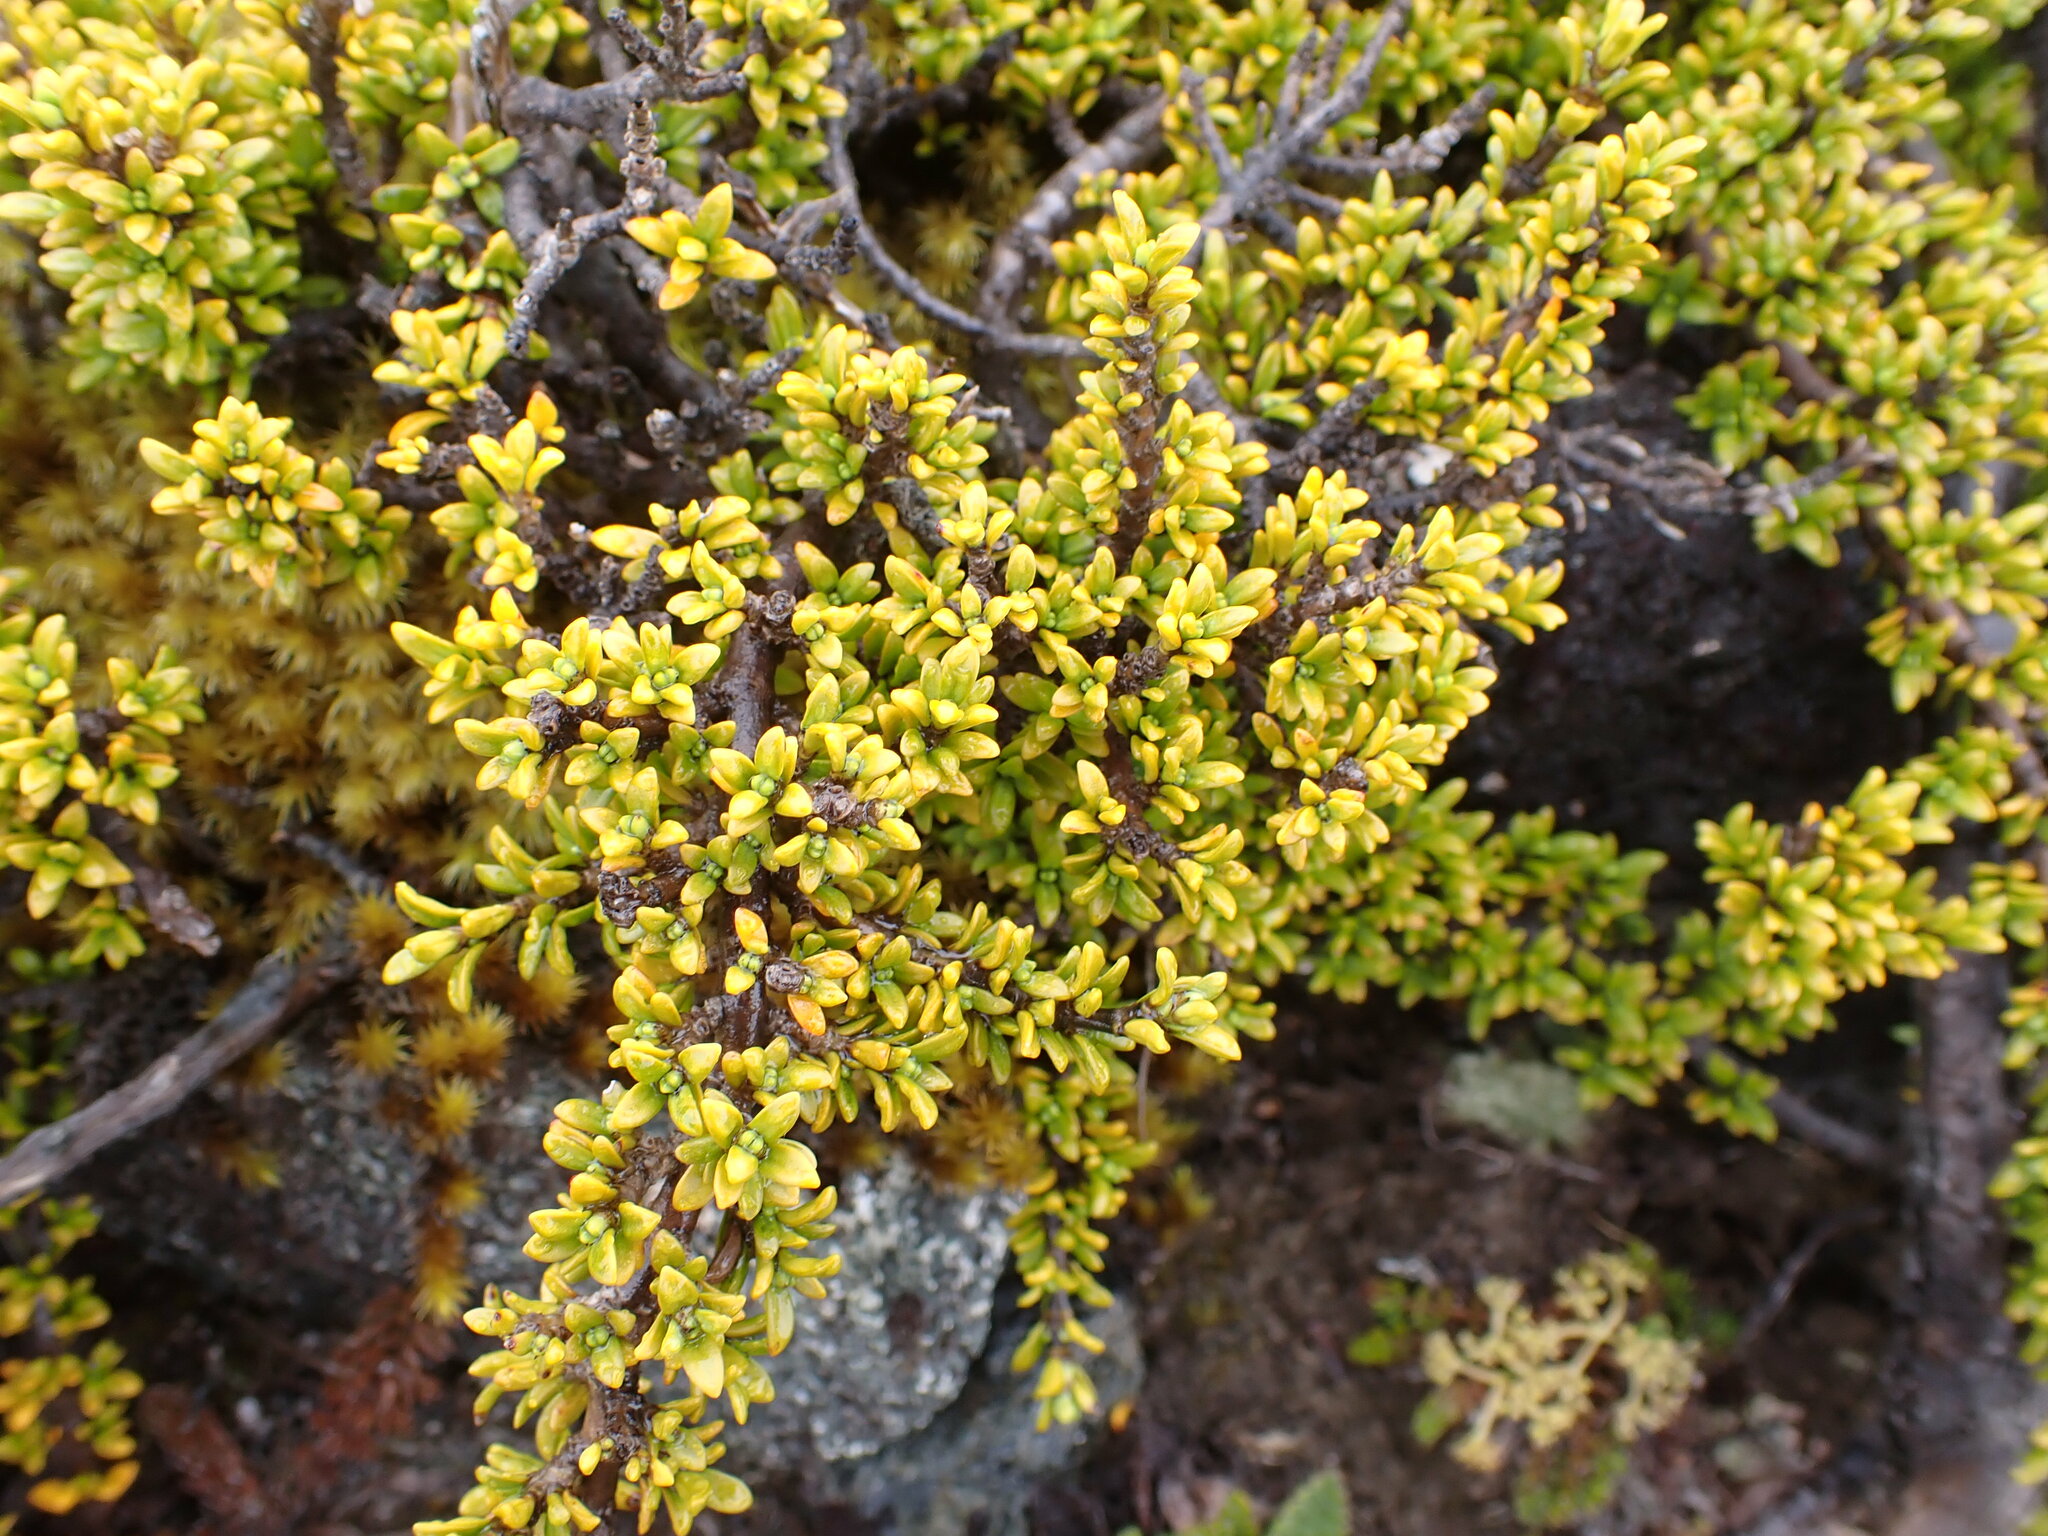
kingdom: Plantae
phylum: Tracheophyta
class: Magnoliopsida
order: Gentianales
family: Rubiaceae
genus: Coprosma
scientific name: Coprosma fowerakeri
